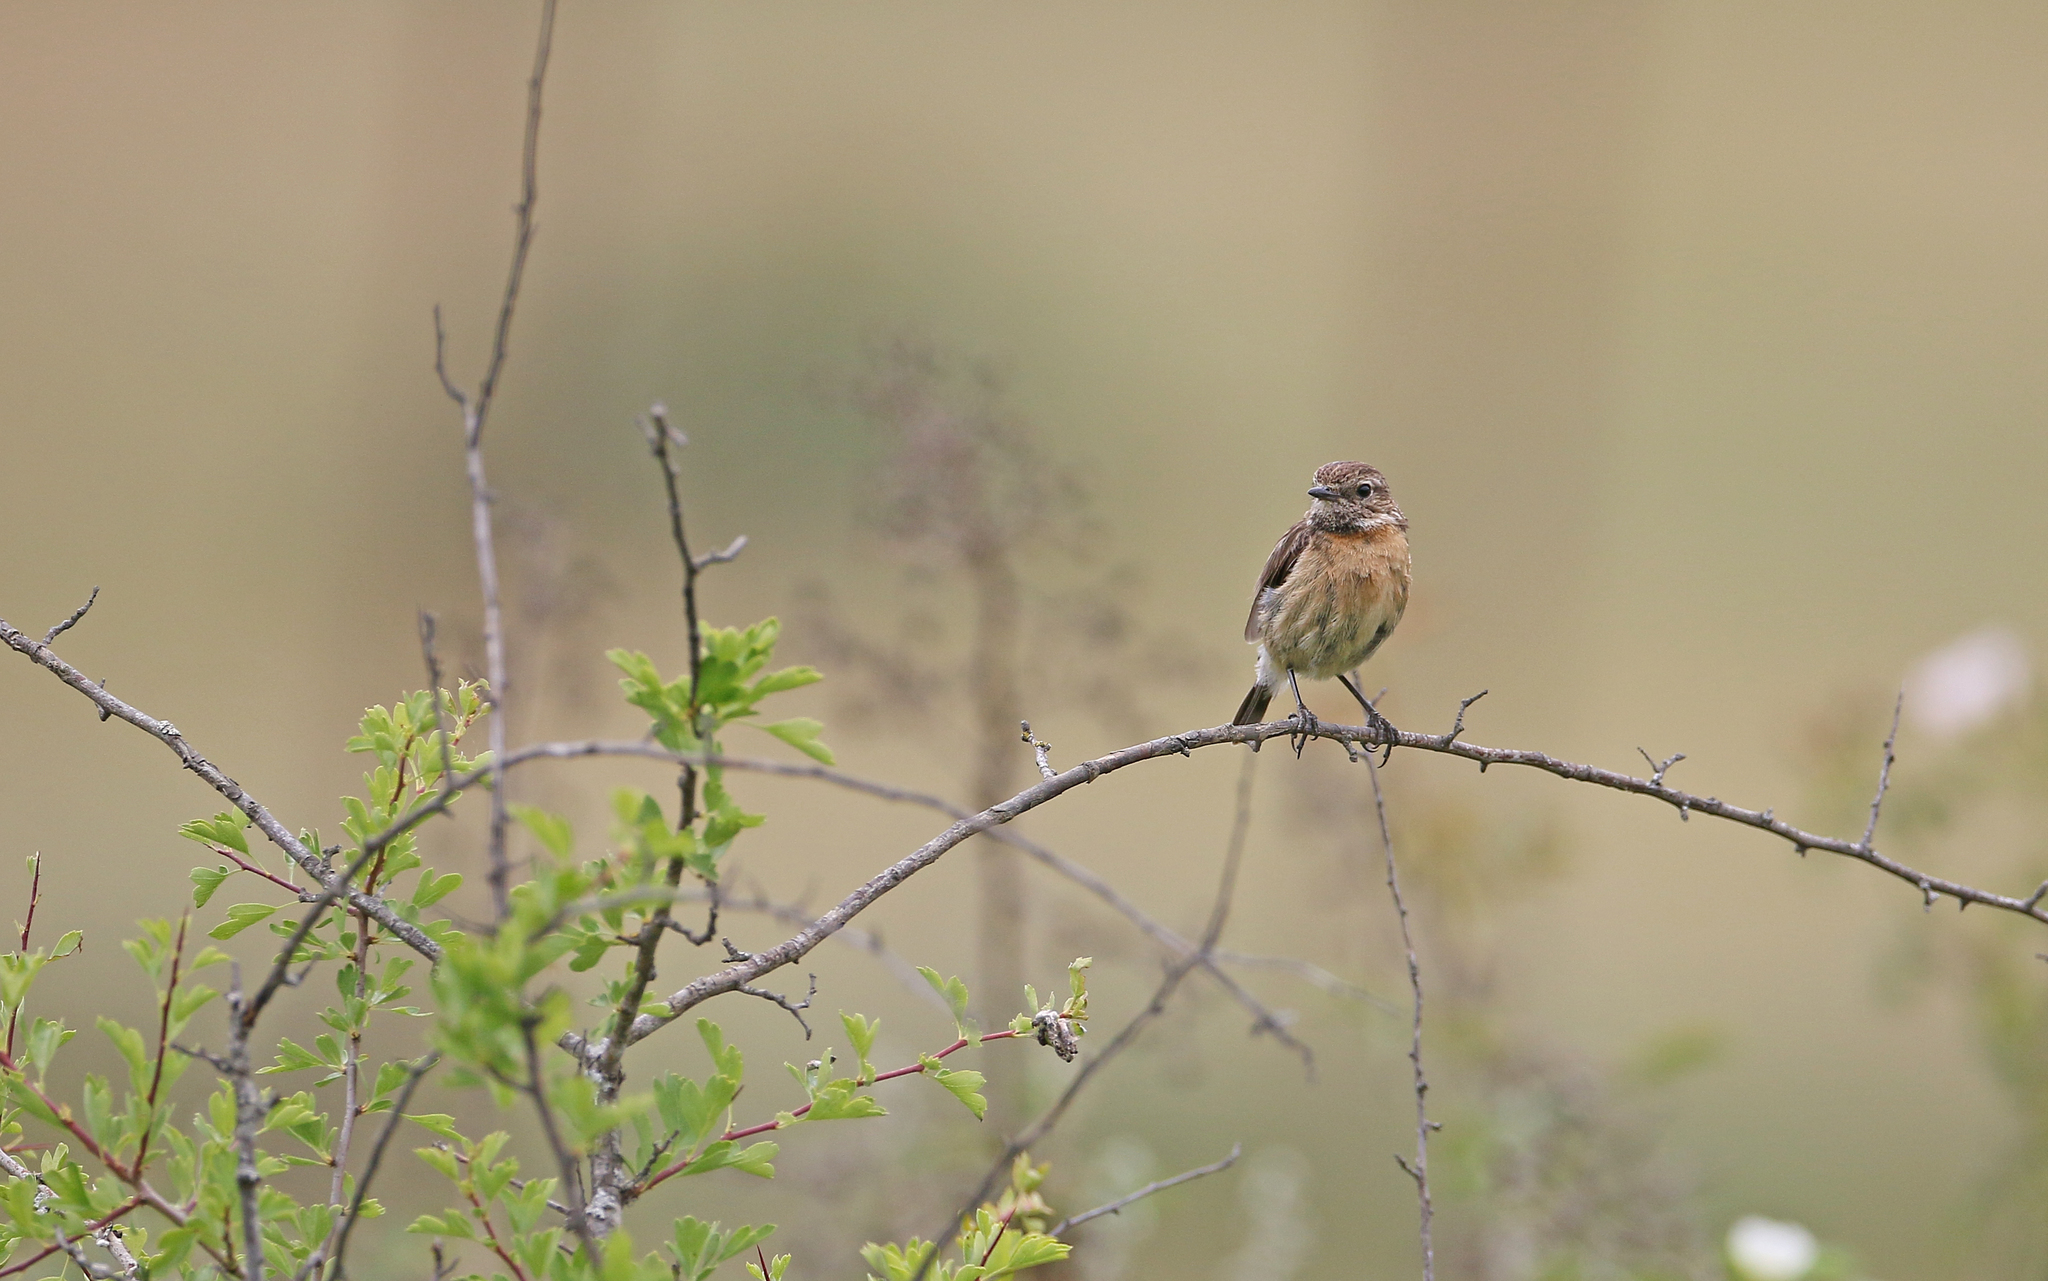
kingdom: Animalia
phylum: Chordata
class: Aves
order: Passeriformes
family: Muscicapidae
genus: Saxicola
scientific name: Saxicola rubicola
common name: European stonechat
